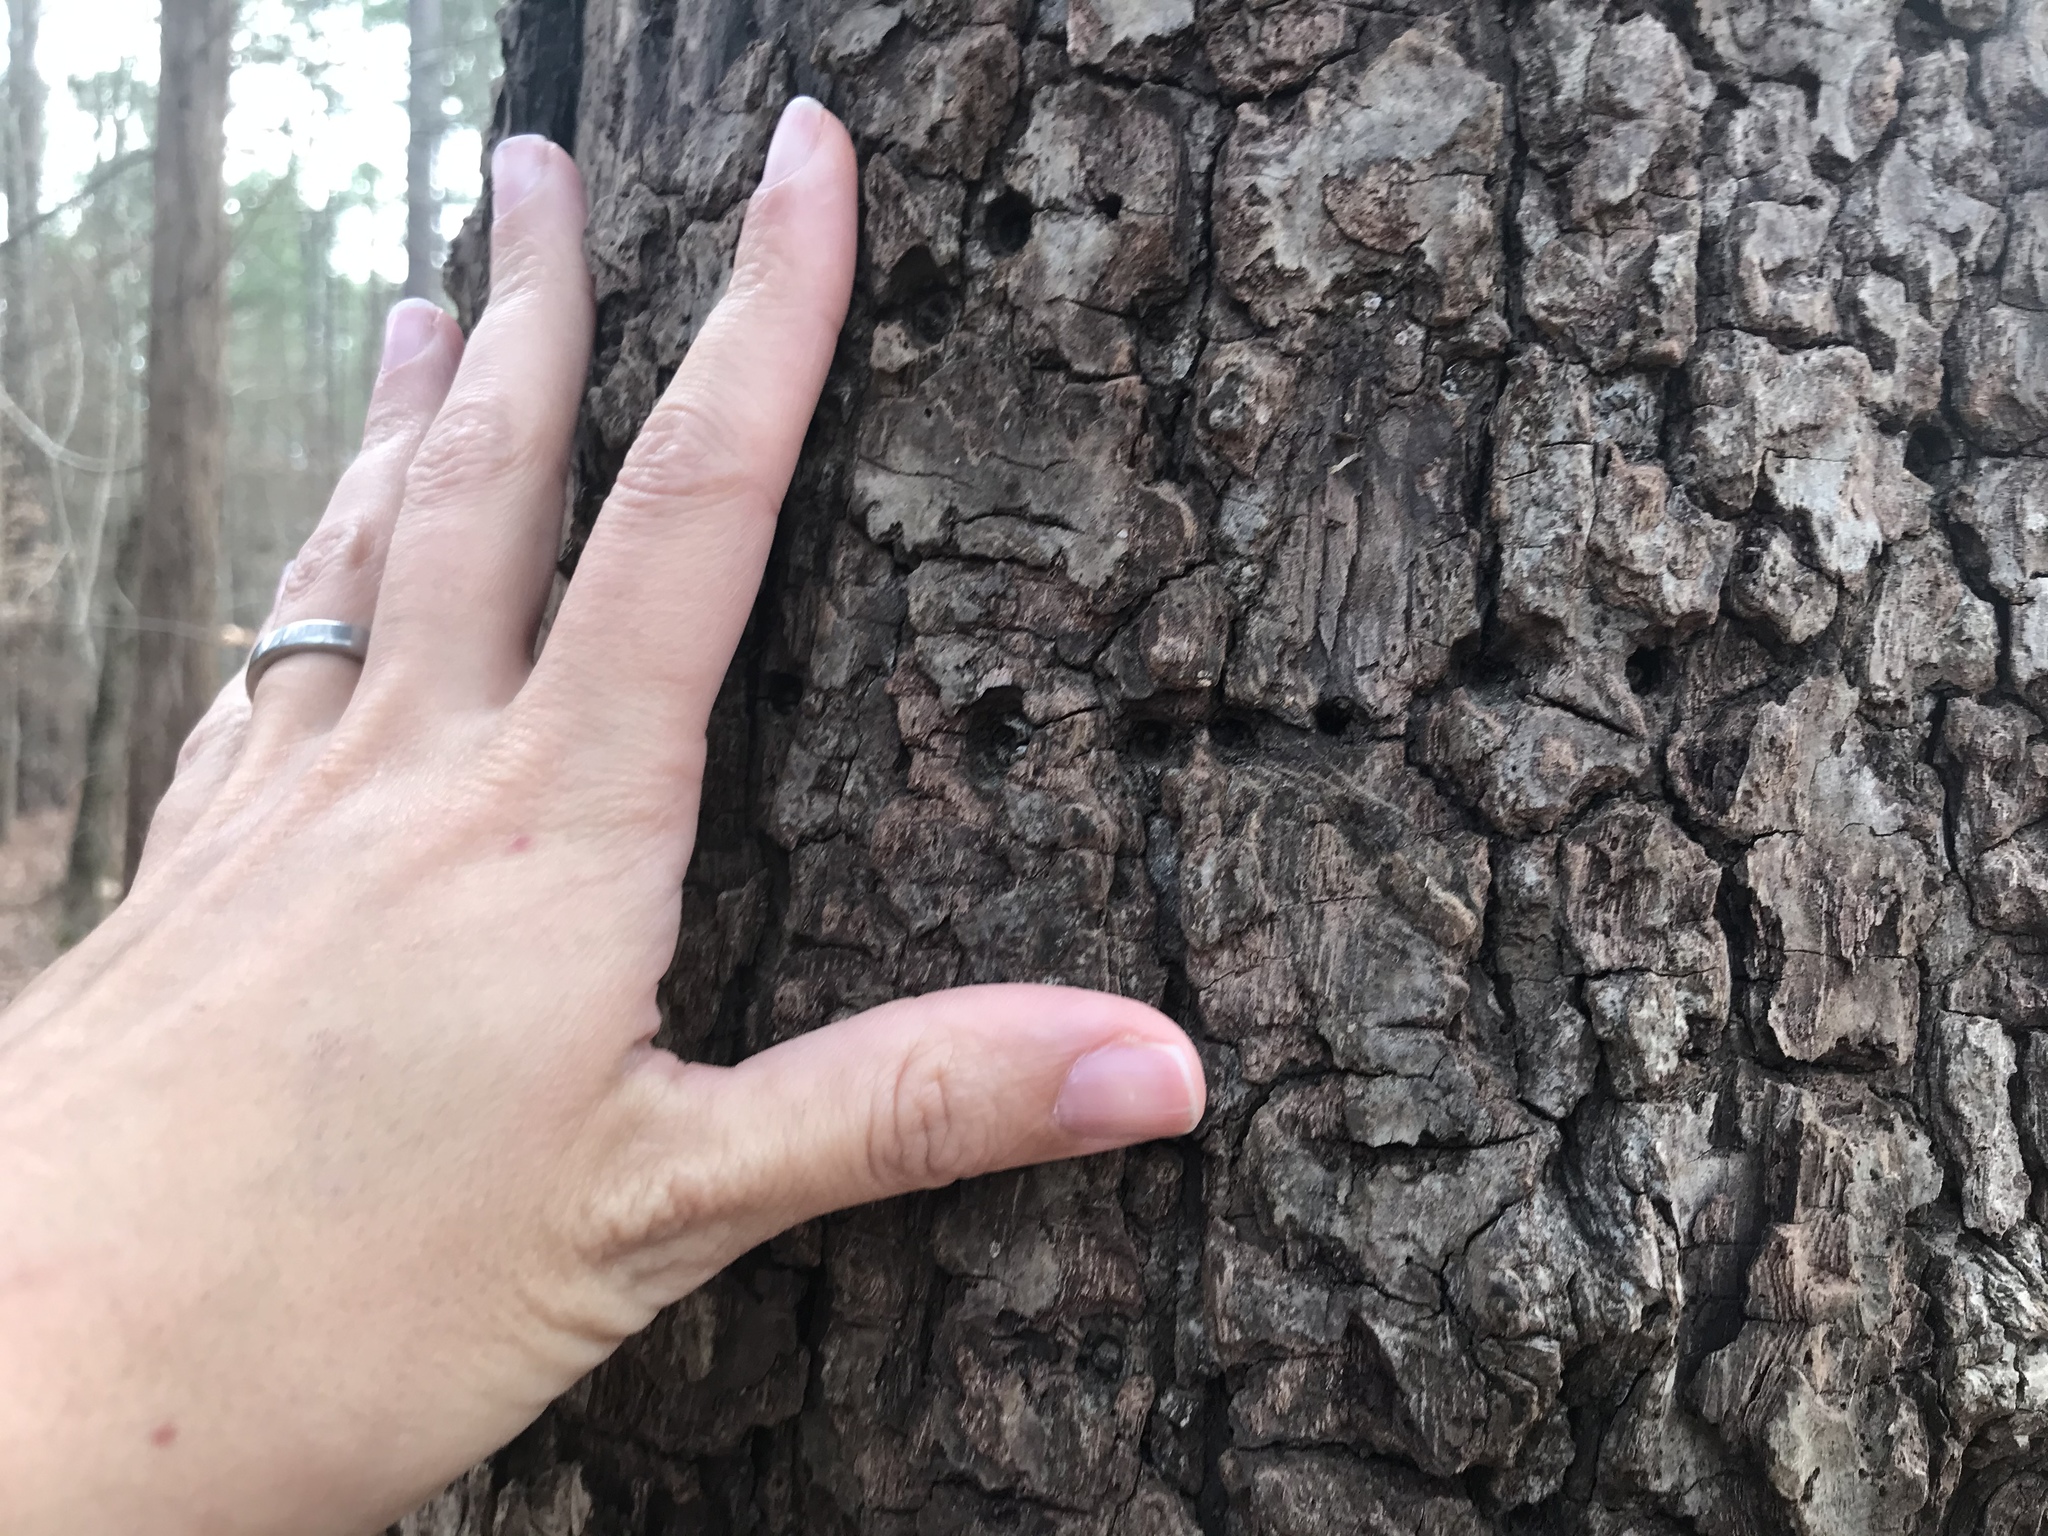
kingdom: Animalia
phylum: Chordata
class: Aves
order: Piciformes
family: Picidae
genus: Sphyrapicus
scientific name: Sphyrapicus varius
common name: Yellow-bellied sapsucker
